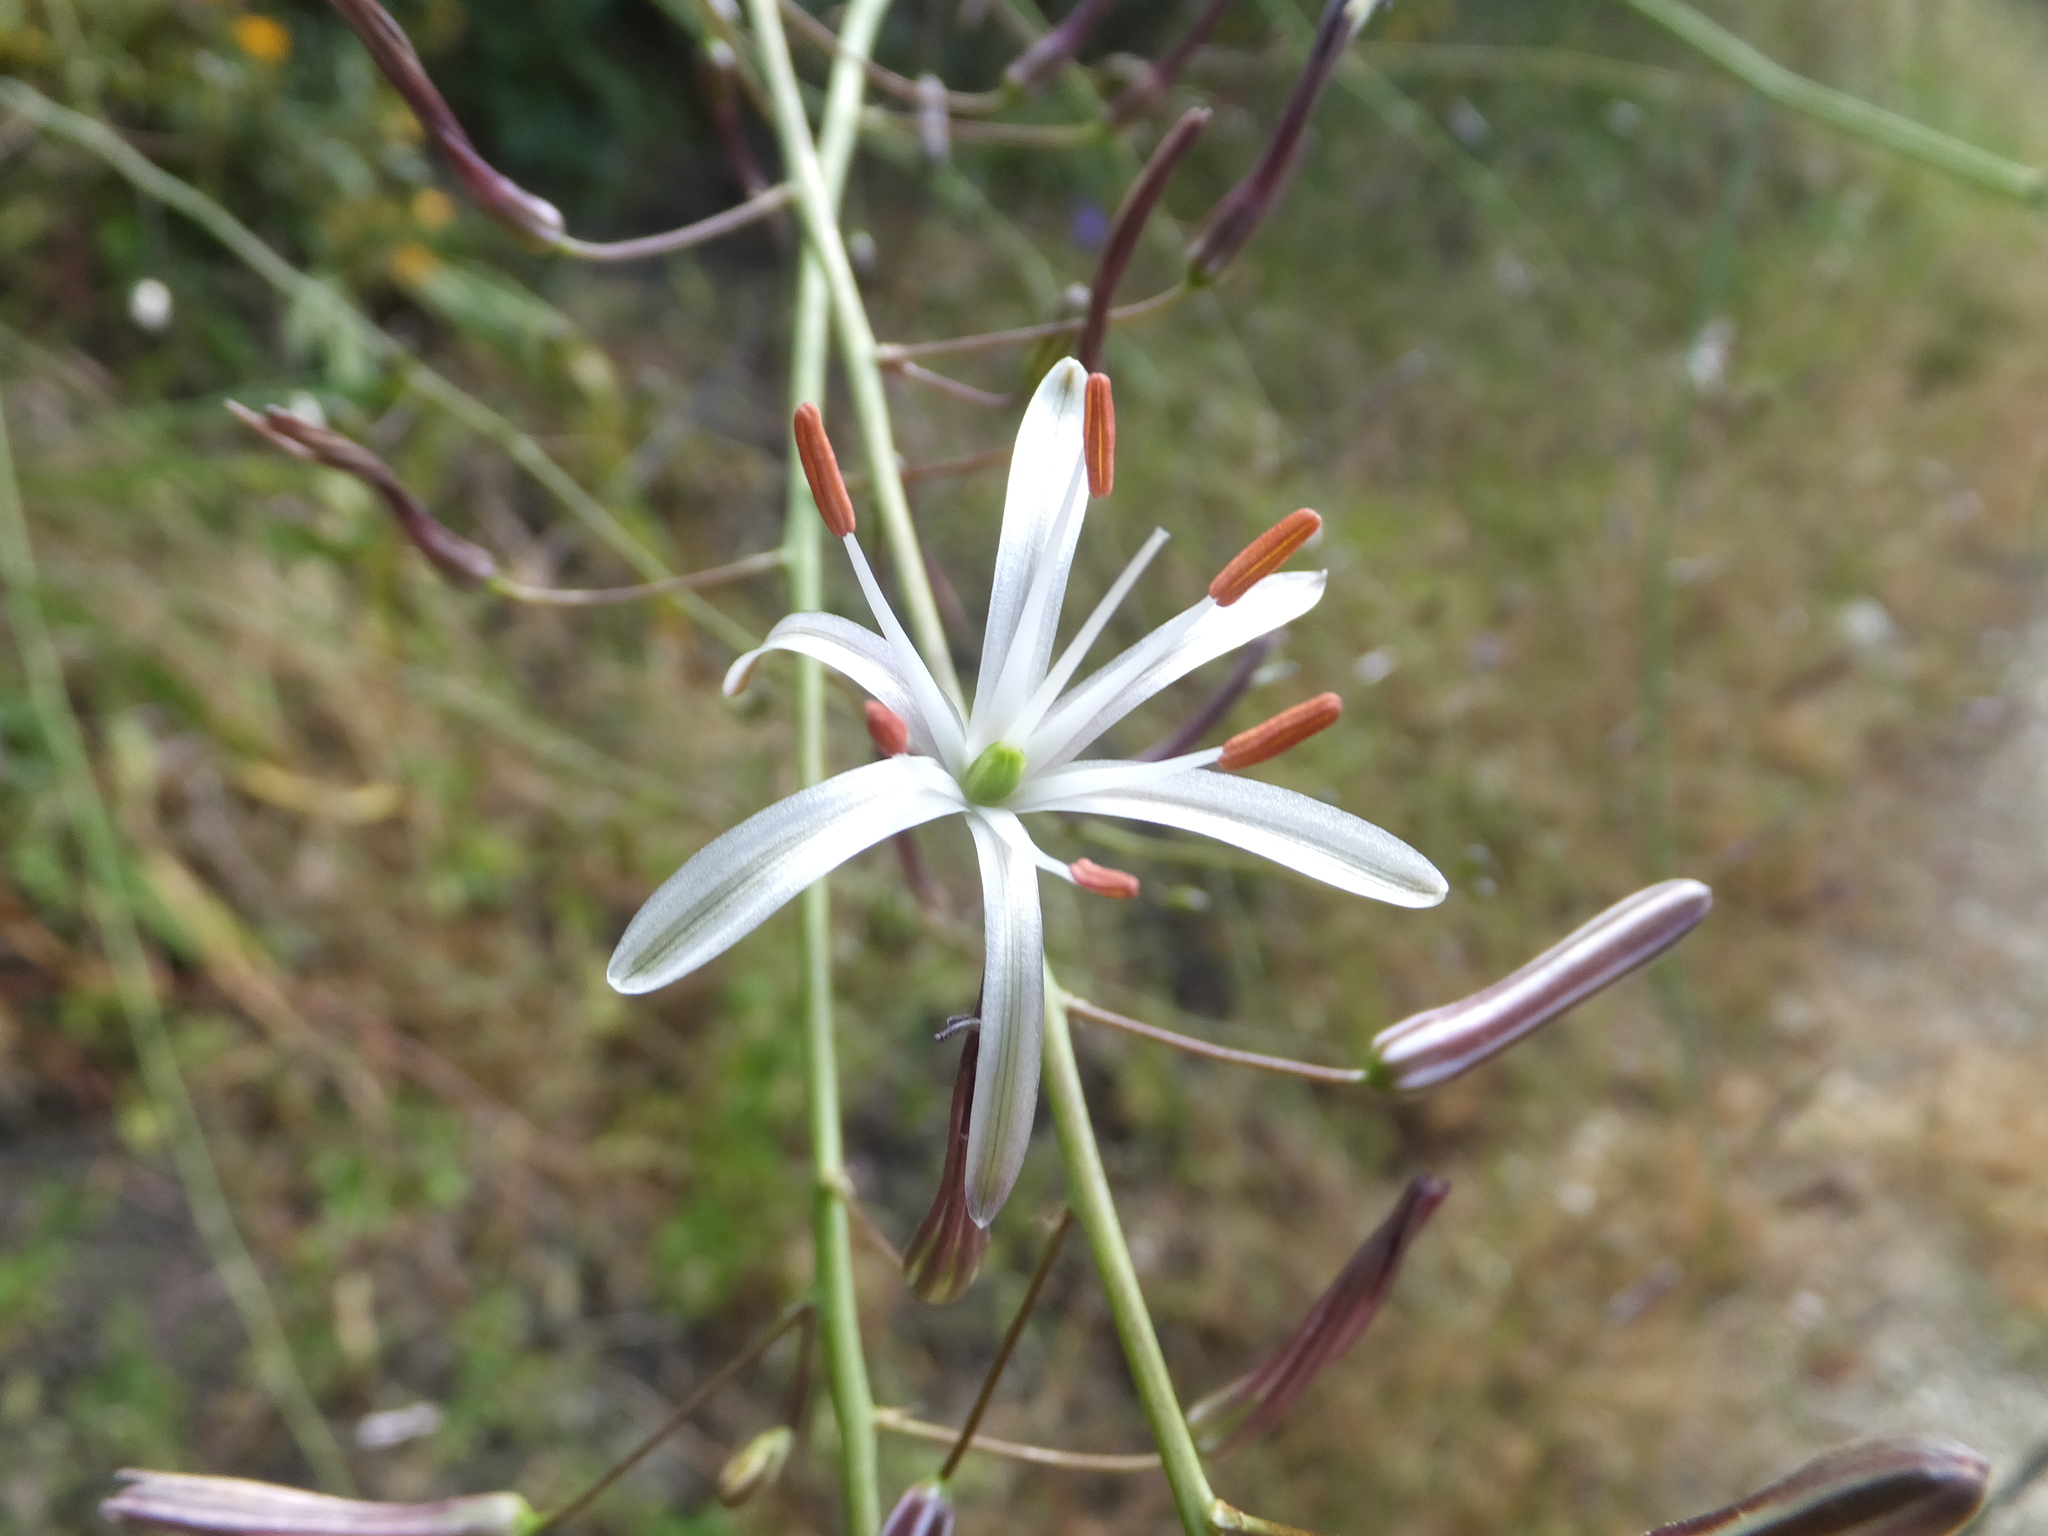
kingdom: Plantae
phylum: Tracheophyta
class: Liliopsida
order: Asparagales
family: Asparagaceae
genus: Chlorogalum
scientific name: Chlorogalum pomeridianum
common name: Amole
